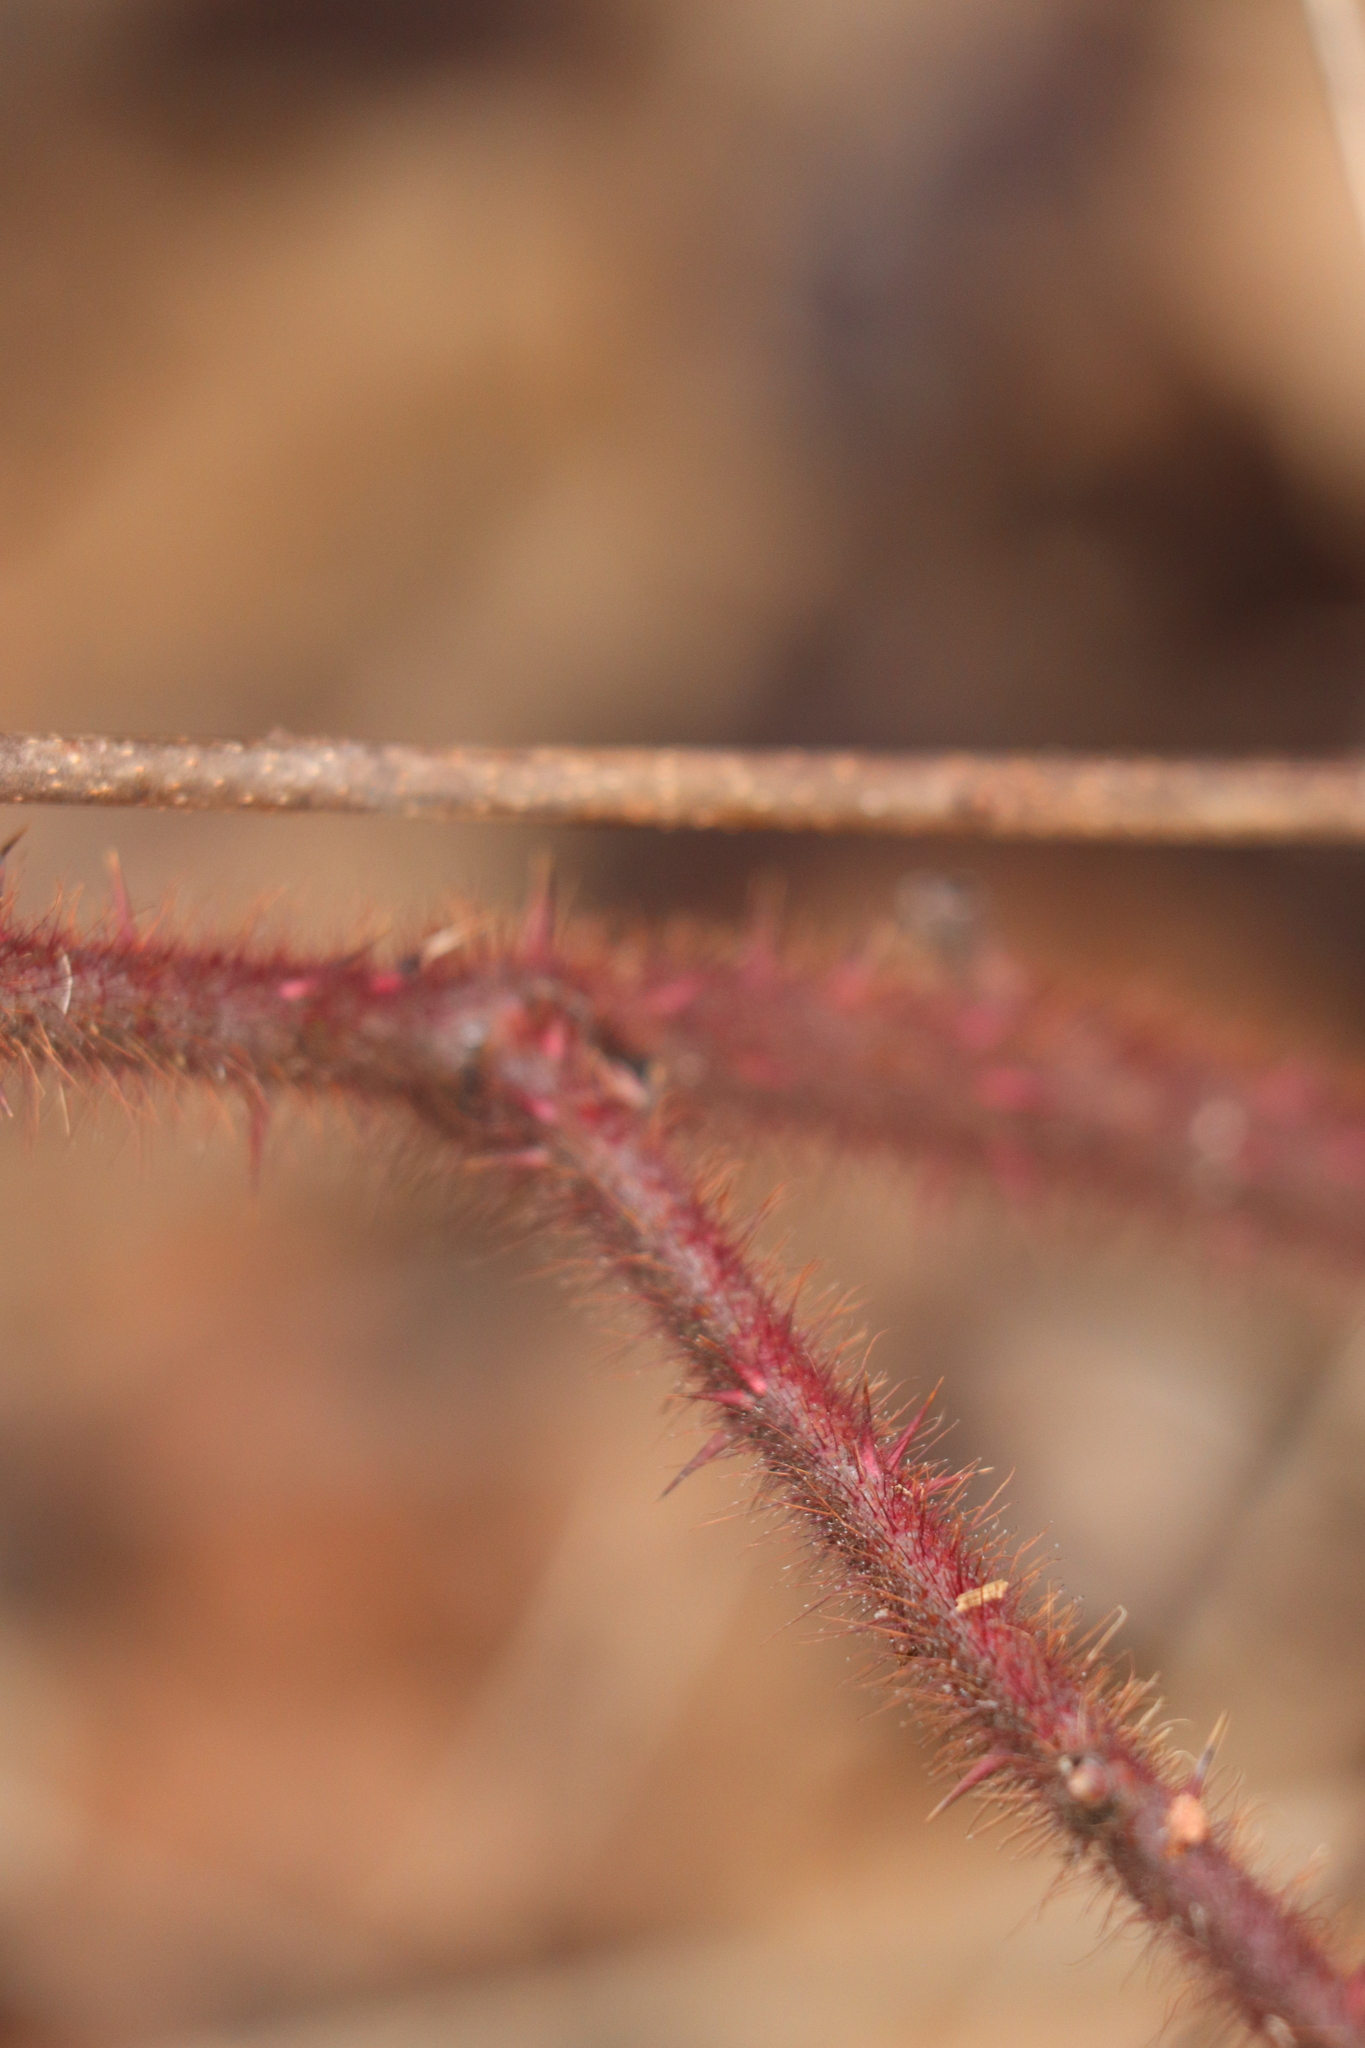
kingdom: Plantae
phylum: Tracheophyta
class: Magnoliopsida
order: Rosales
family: Rosaceae
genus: Rubus
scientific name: Rubus phoenicolasius
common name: Japanese wineberry
